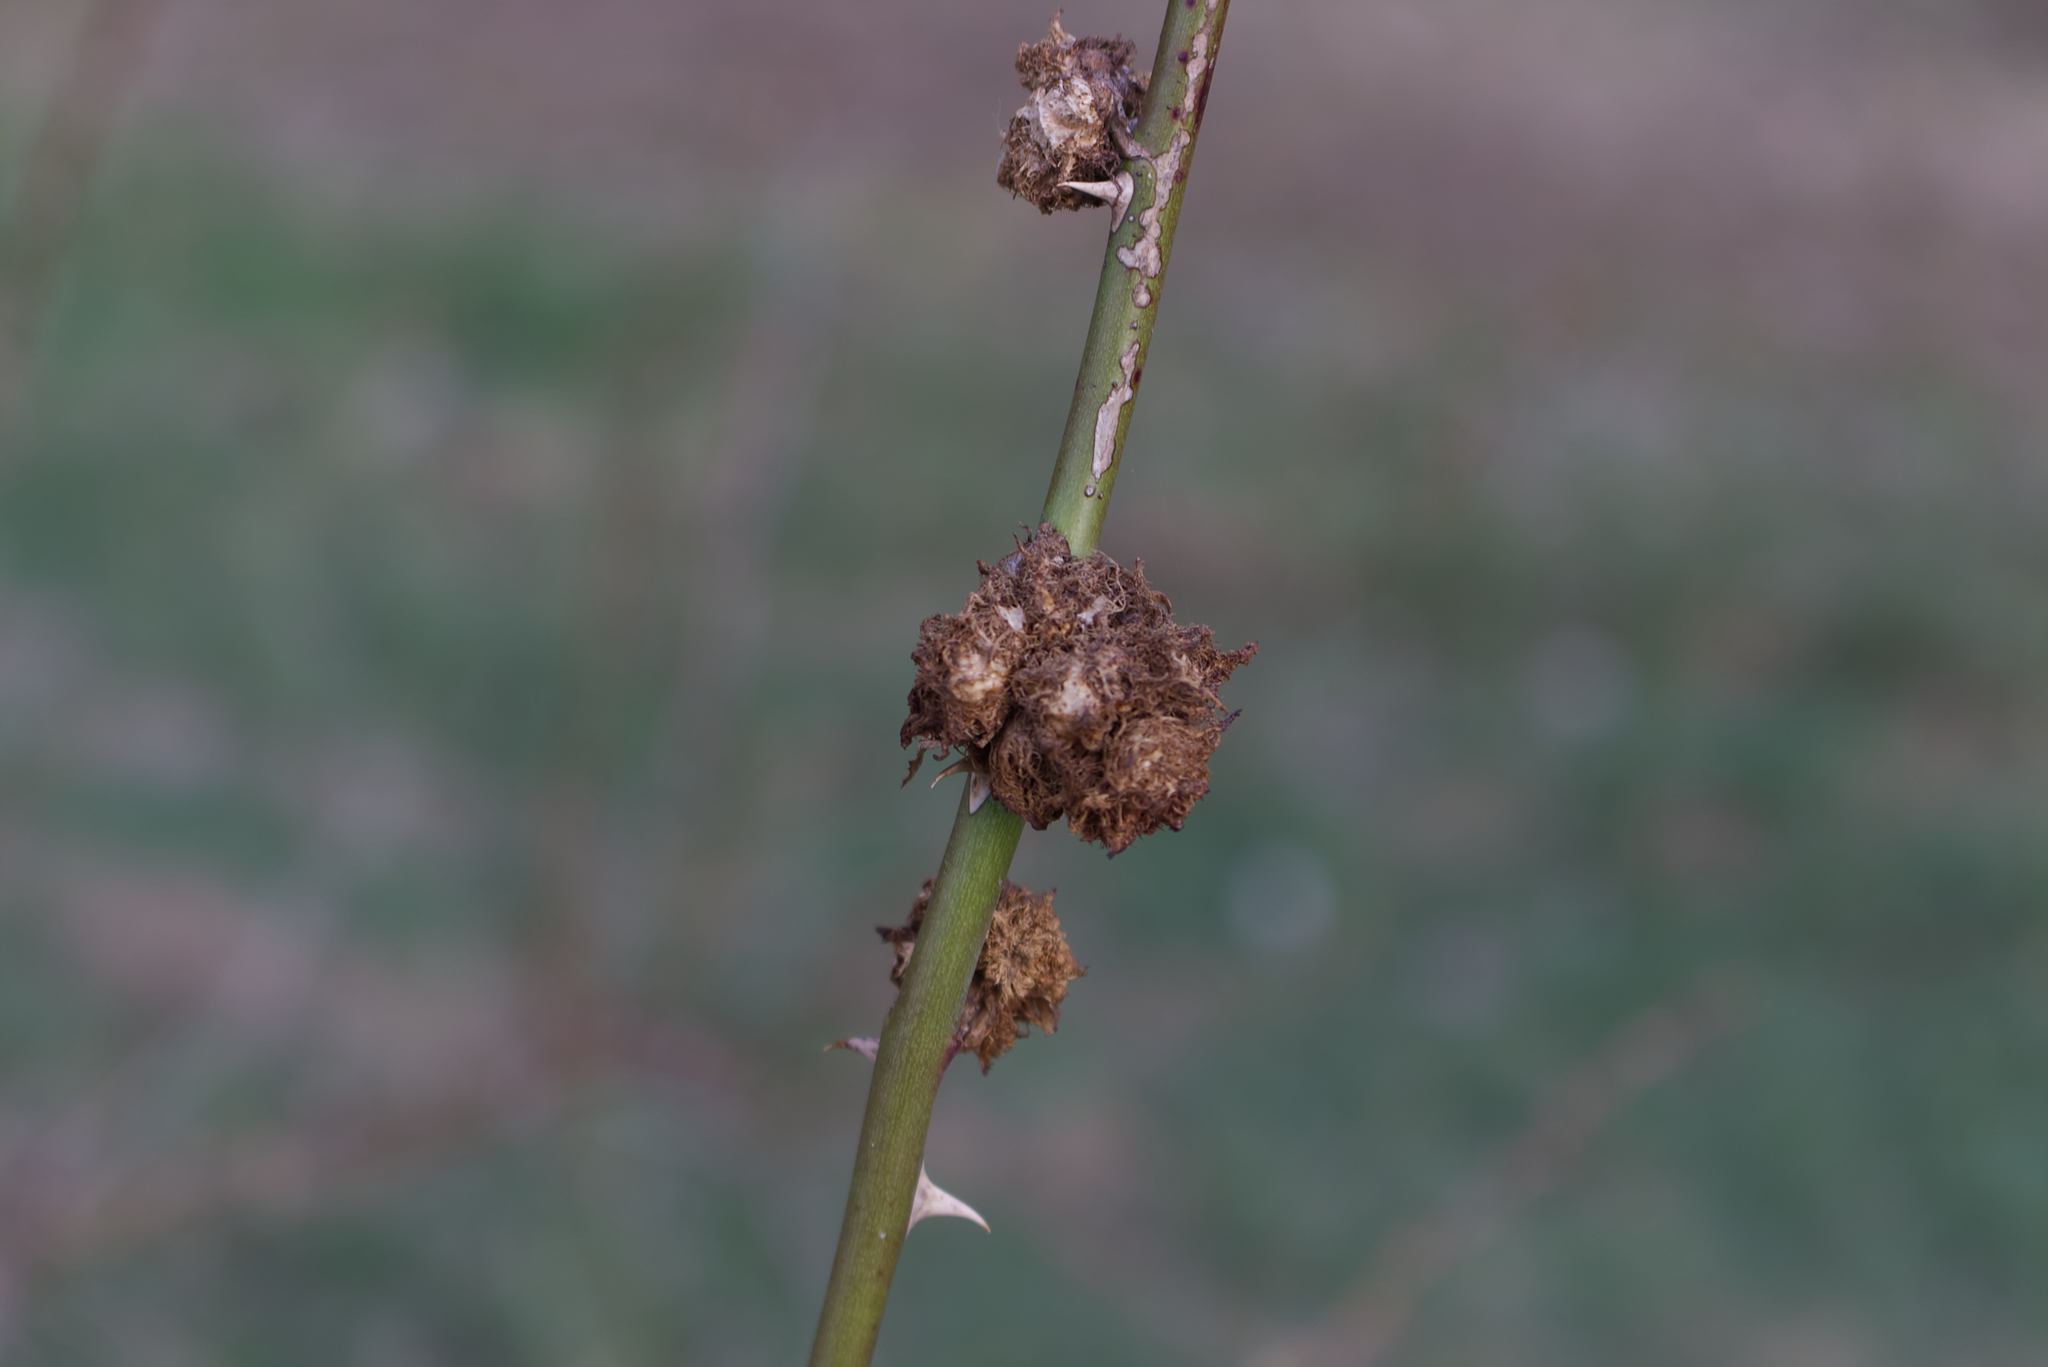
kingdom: Animalia
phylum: Arthropoda
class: Insecta
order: Hymenoptera
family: Cynipidae
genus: Diplolepis
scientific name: Diplolepis rosae
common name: Bedeguar gall
